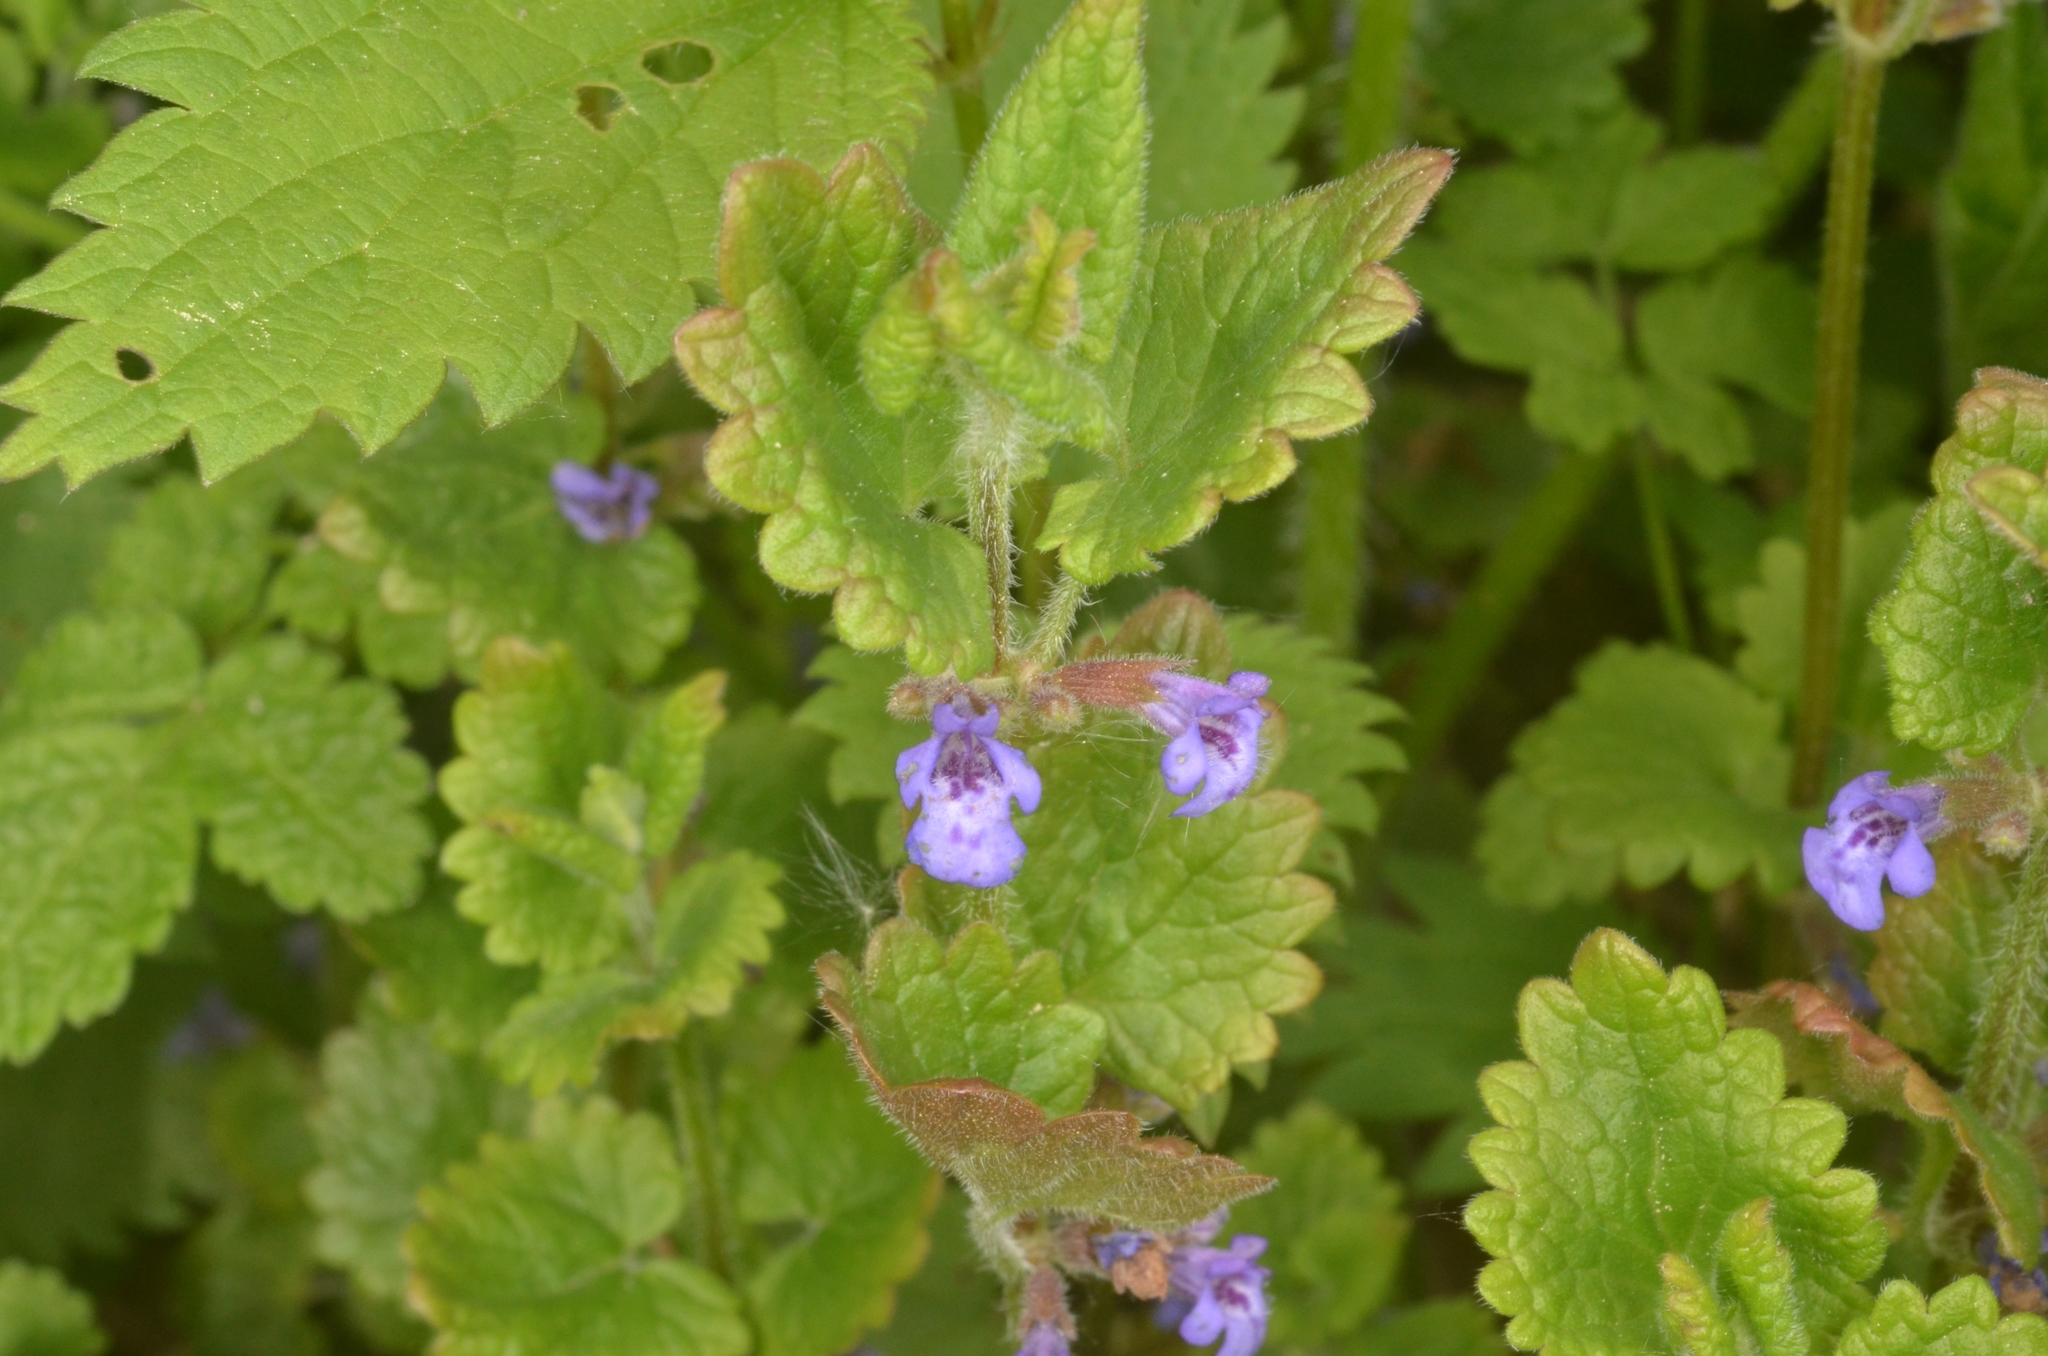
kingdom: Plantae
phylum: Tracheophyta
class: Magnoliopsida
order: Lamiales
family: Lamiaceae
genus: Glechoma
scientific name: Glechoma hederacea
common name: Ground ivy
